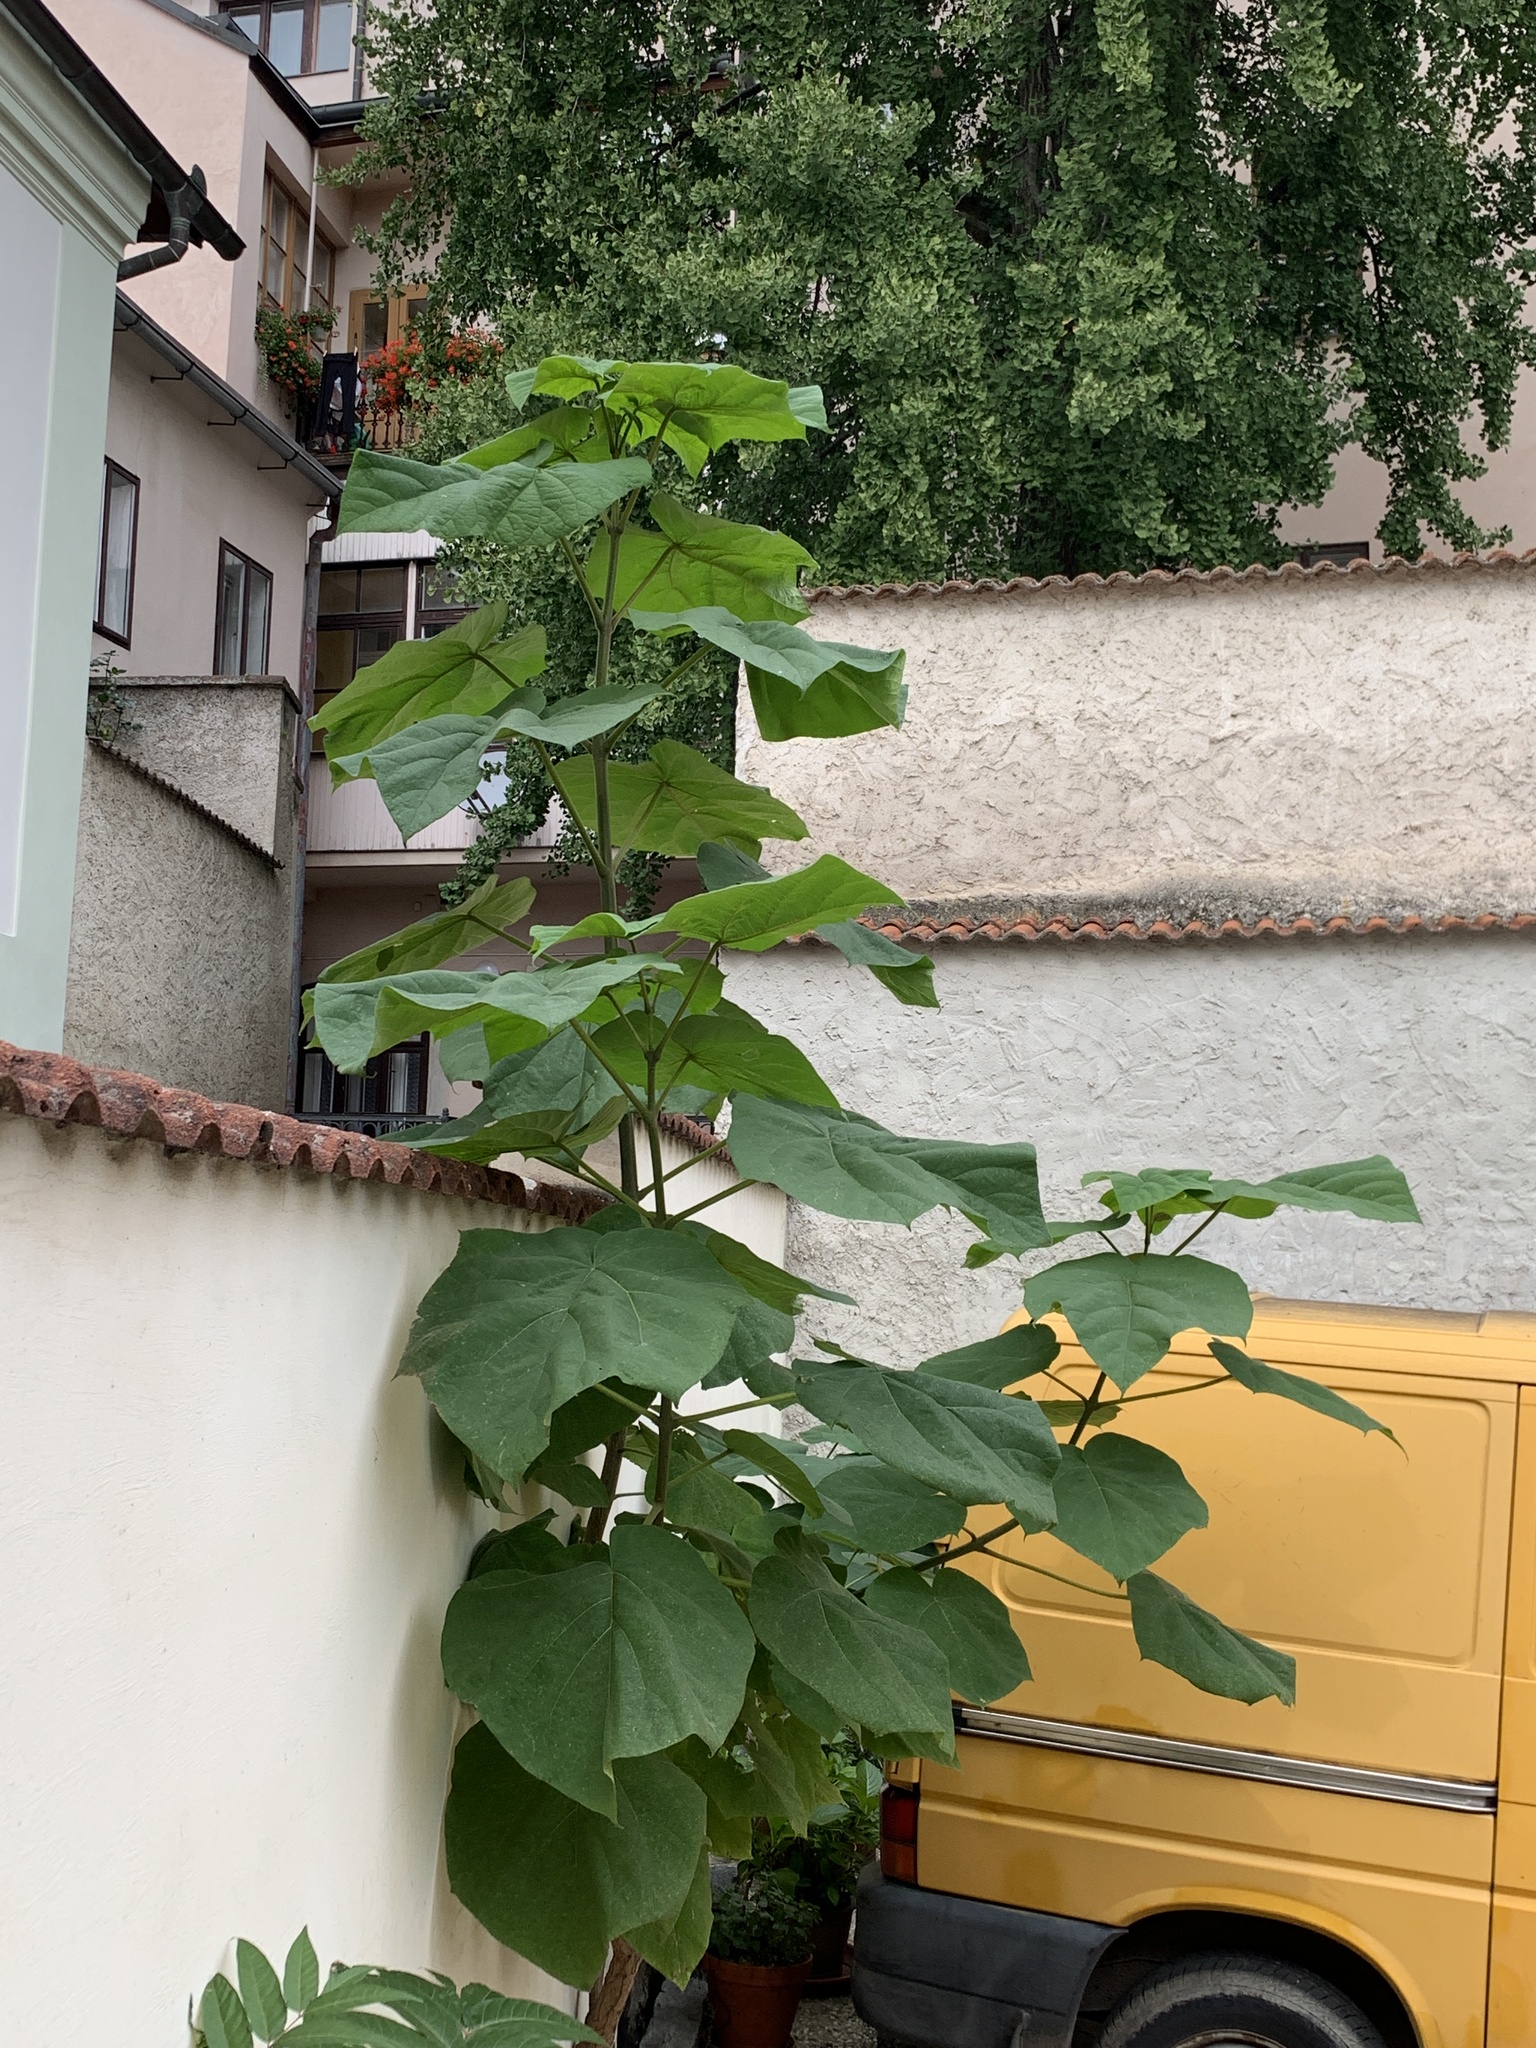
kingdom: Plantae
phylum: Tracheophyta
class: Magnoliopsida
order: Lamiales
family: Paulowniaceae
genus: Paulownia
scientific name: Paulownia tomentosa
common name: Foxglove-tree
